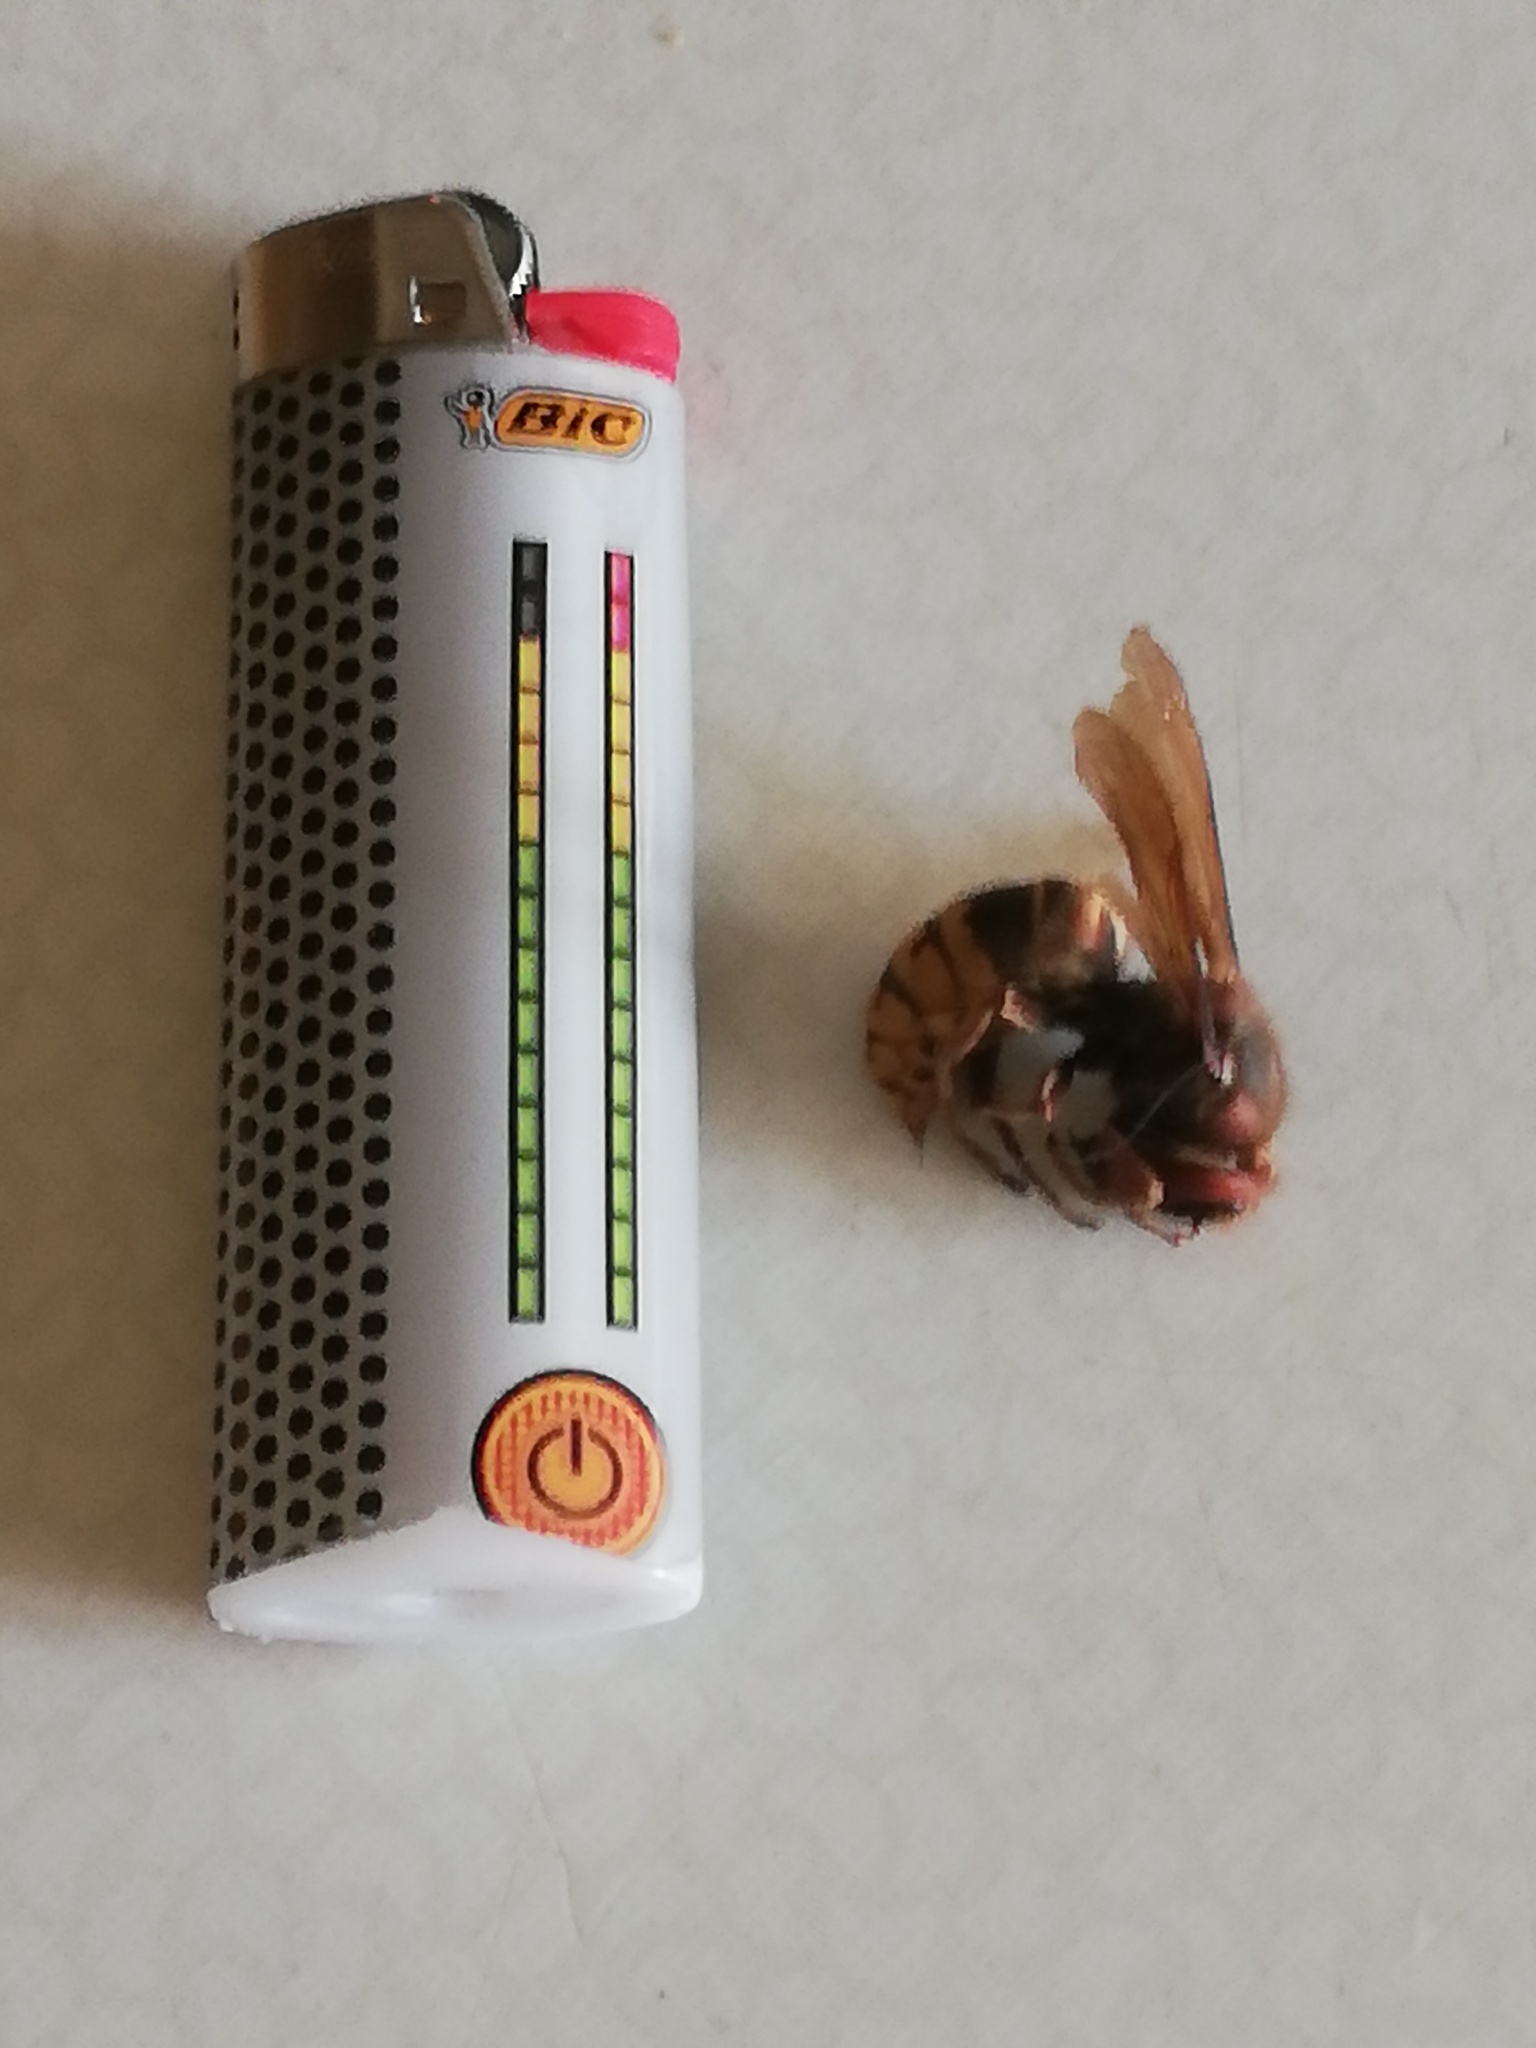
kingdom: Animalia
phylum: Arthropoda
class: Insecta
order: Hymenoptera
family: Vespidae
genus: Vespa
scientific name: Vespa crabro
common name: Hornet
